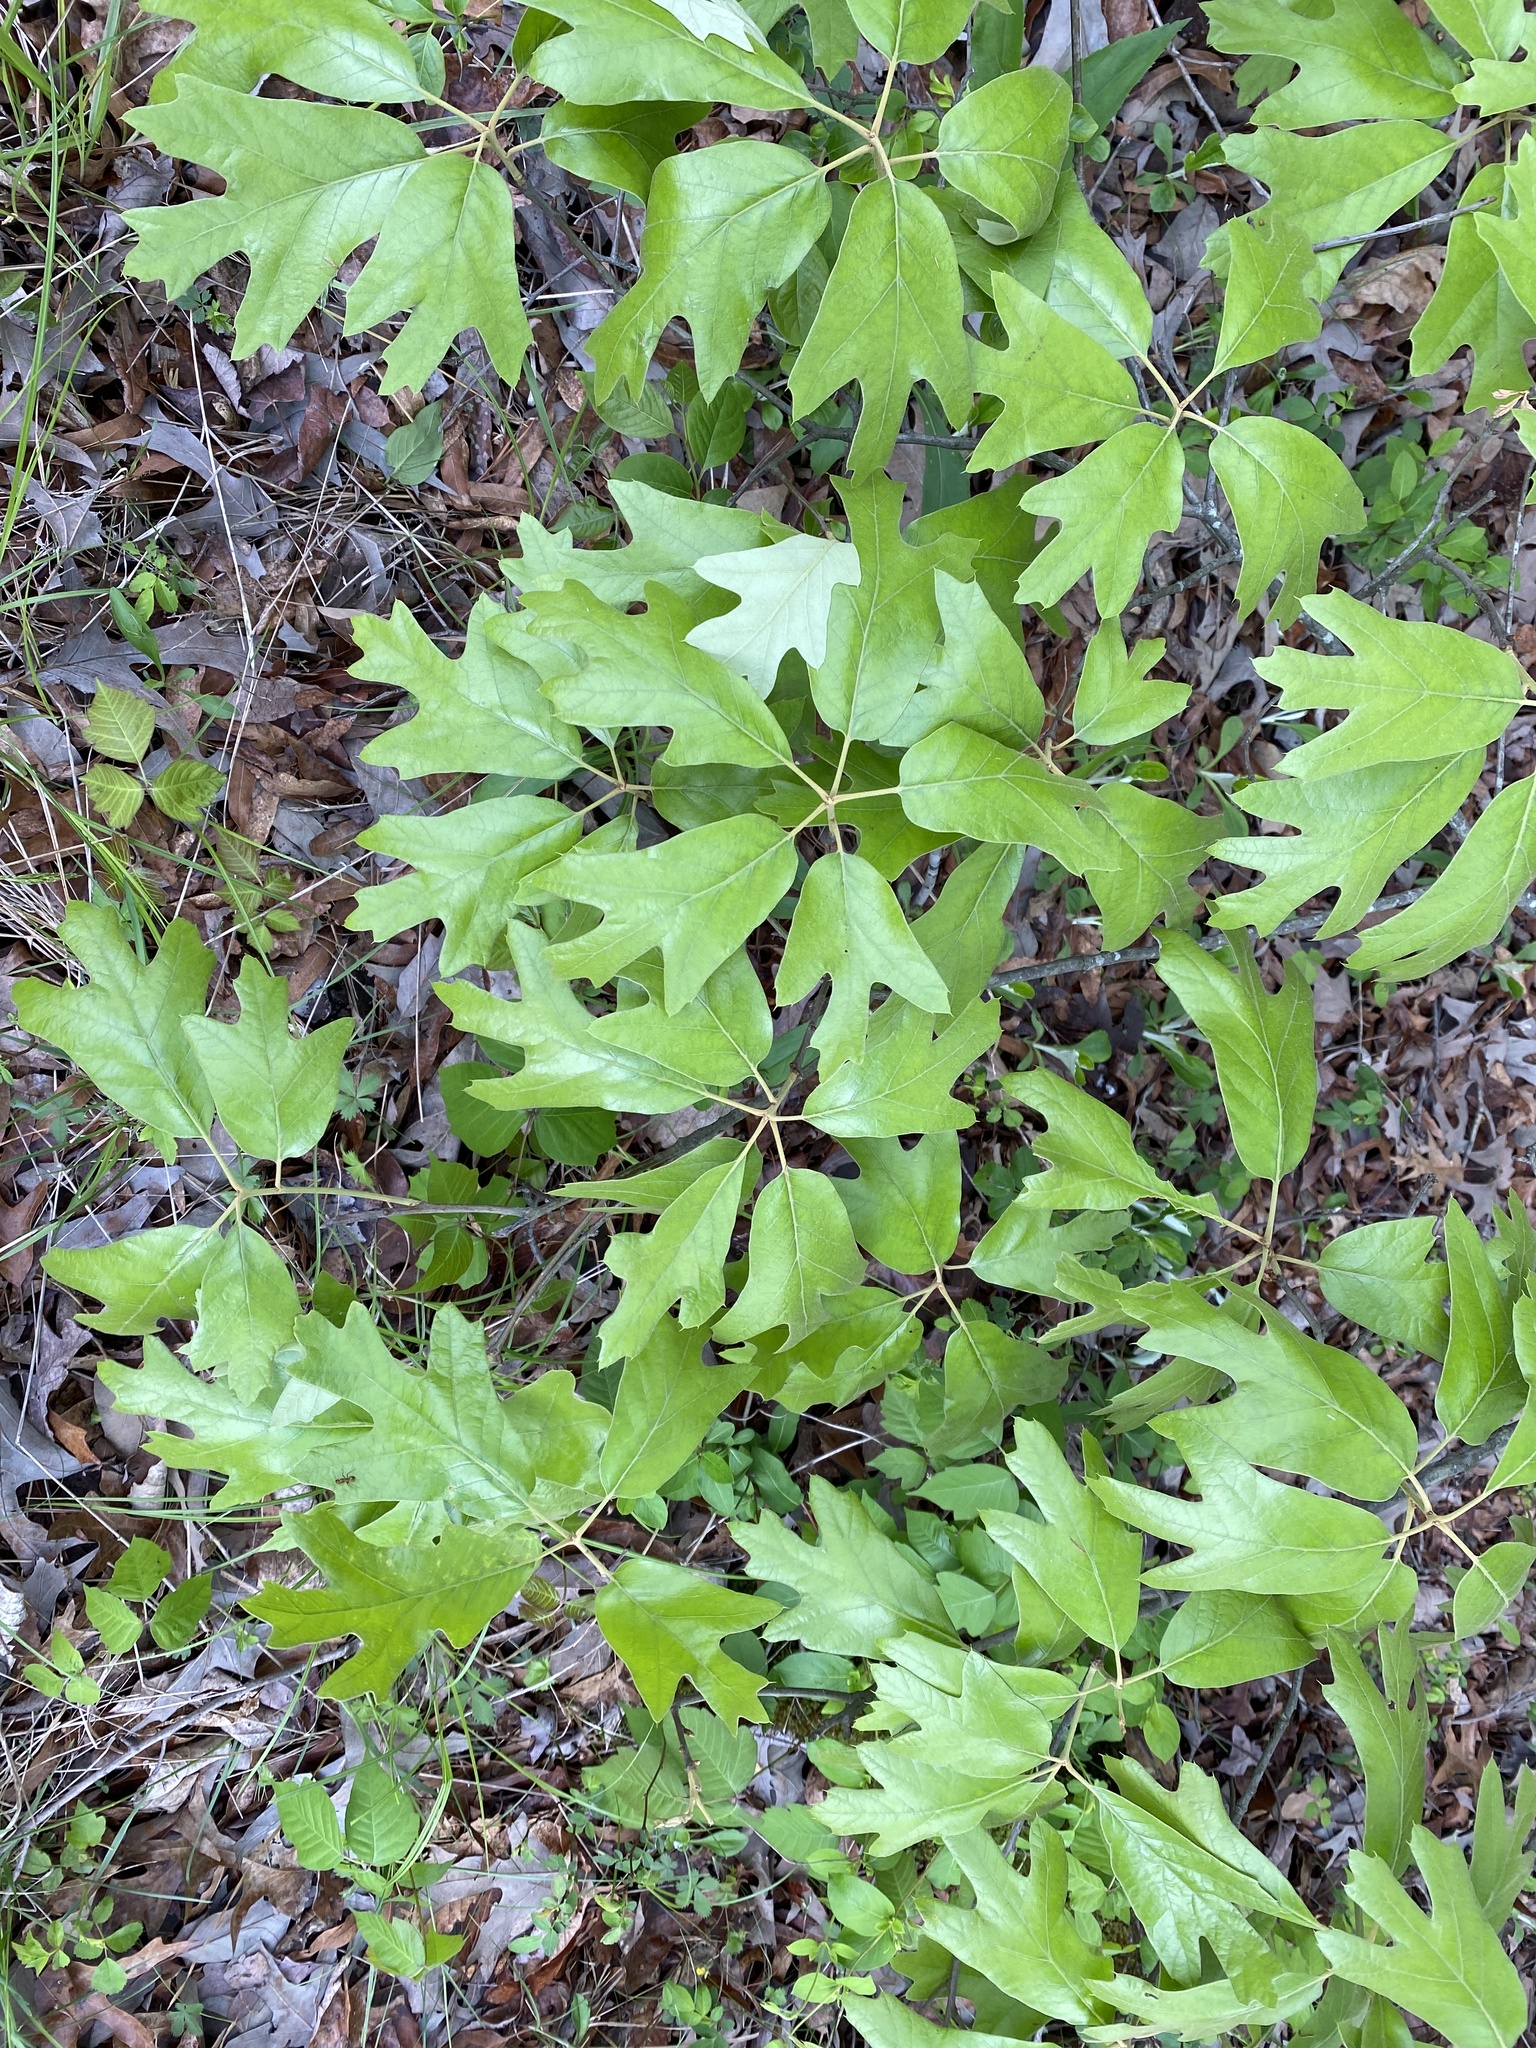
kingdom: Plantae
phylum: Tracheophyta
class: Magnoliopsida
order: Fagales
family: Fagaceae
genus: Quercus
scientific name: Quercus falcata
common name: Southern red oak
